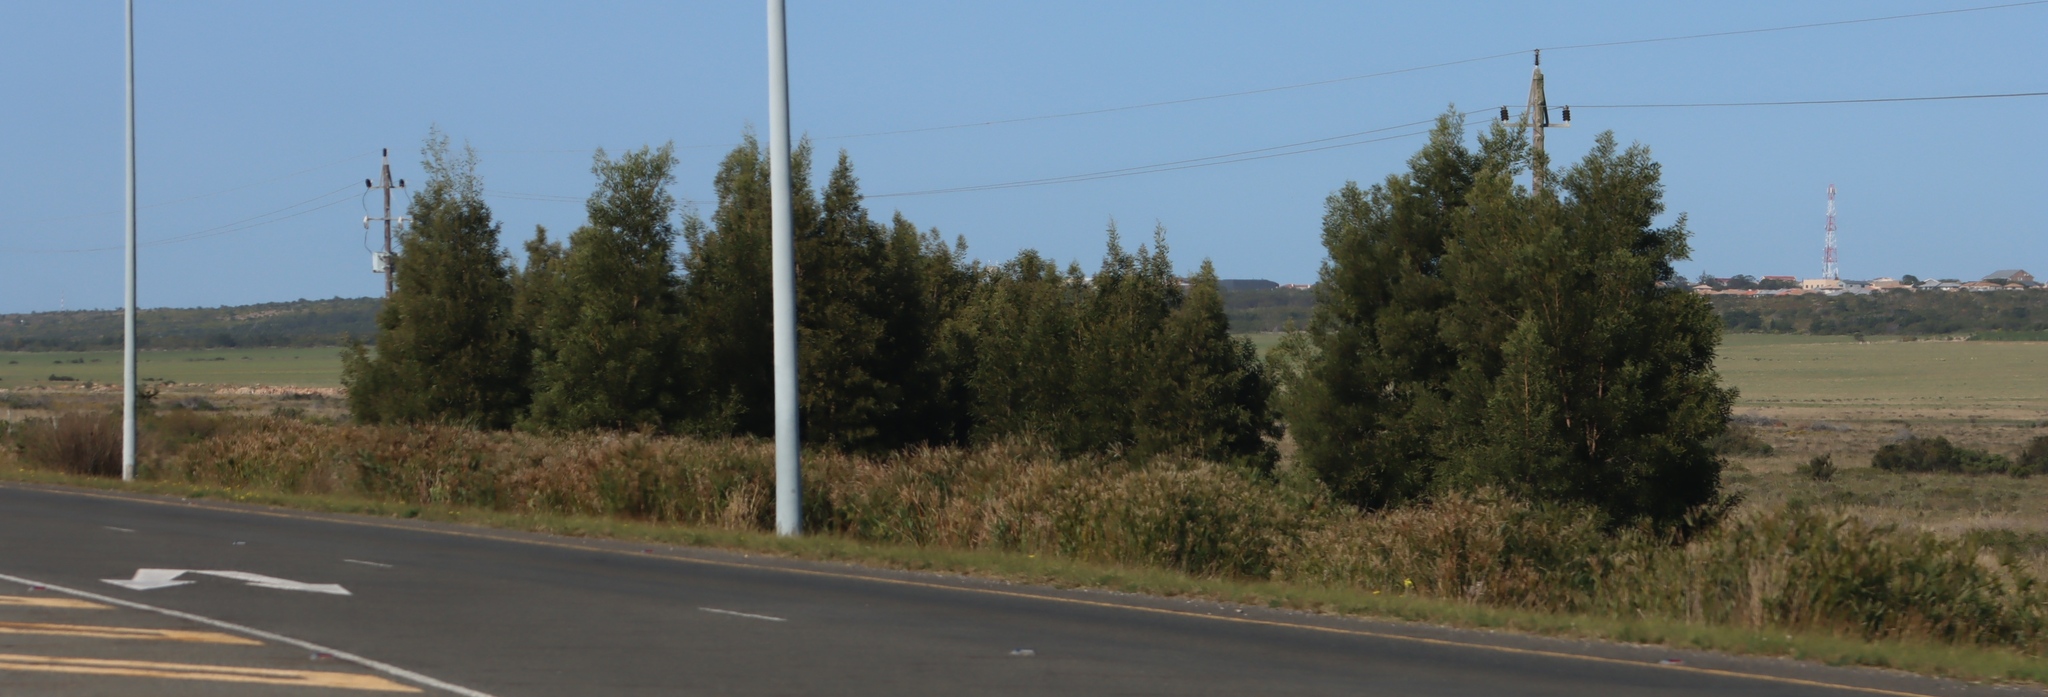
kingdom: Plantae
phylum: Tracheophyta
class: Magnoliopsida
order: Fabales
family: Fabaceae
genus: Acacia
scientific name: Acacia mearnsii
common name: Black wattle
